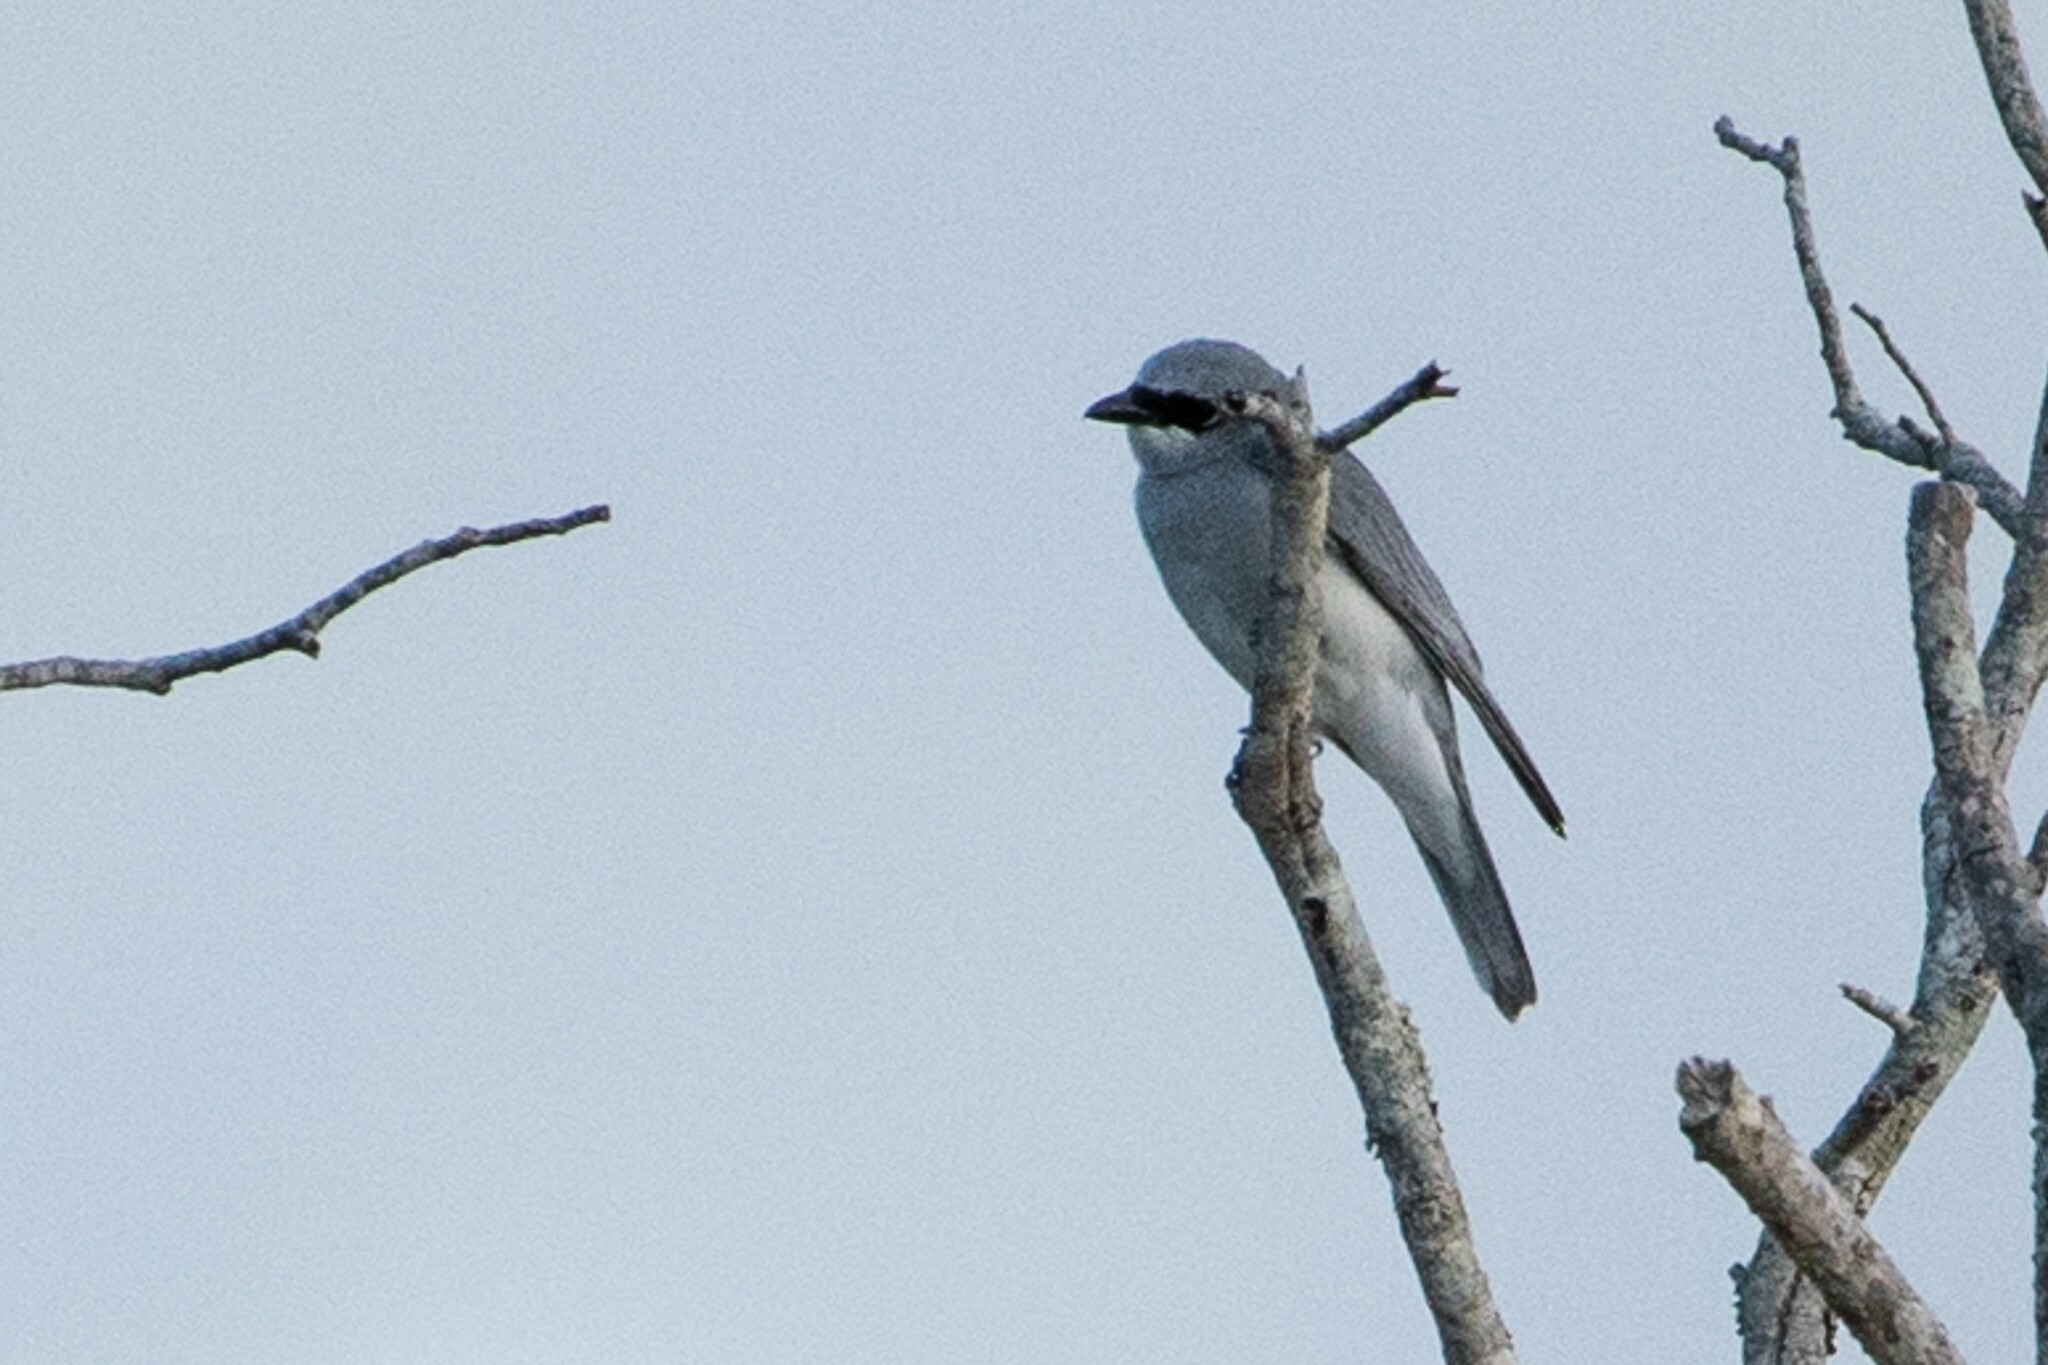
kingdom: Animalia
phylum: Chordata
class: Aves
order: Passeriformes
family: Campephagidae
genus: Coracina
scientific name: Coracina papuensis
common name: White-bellied cuckooshrike
